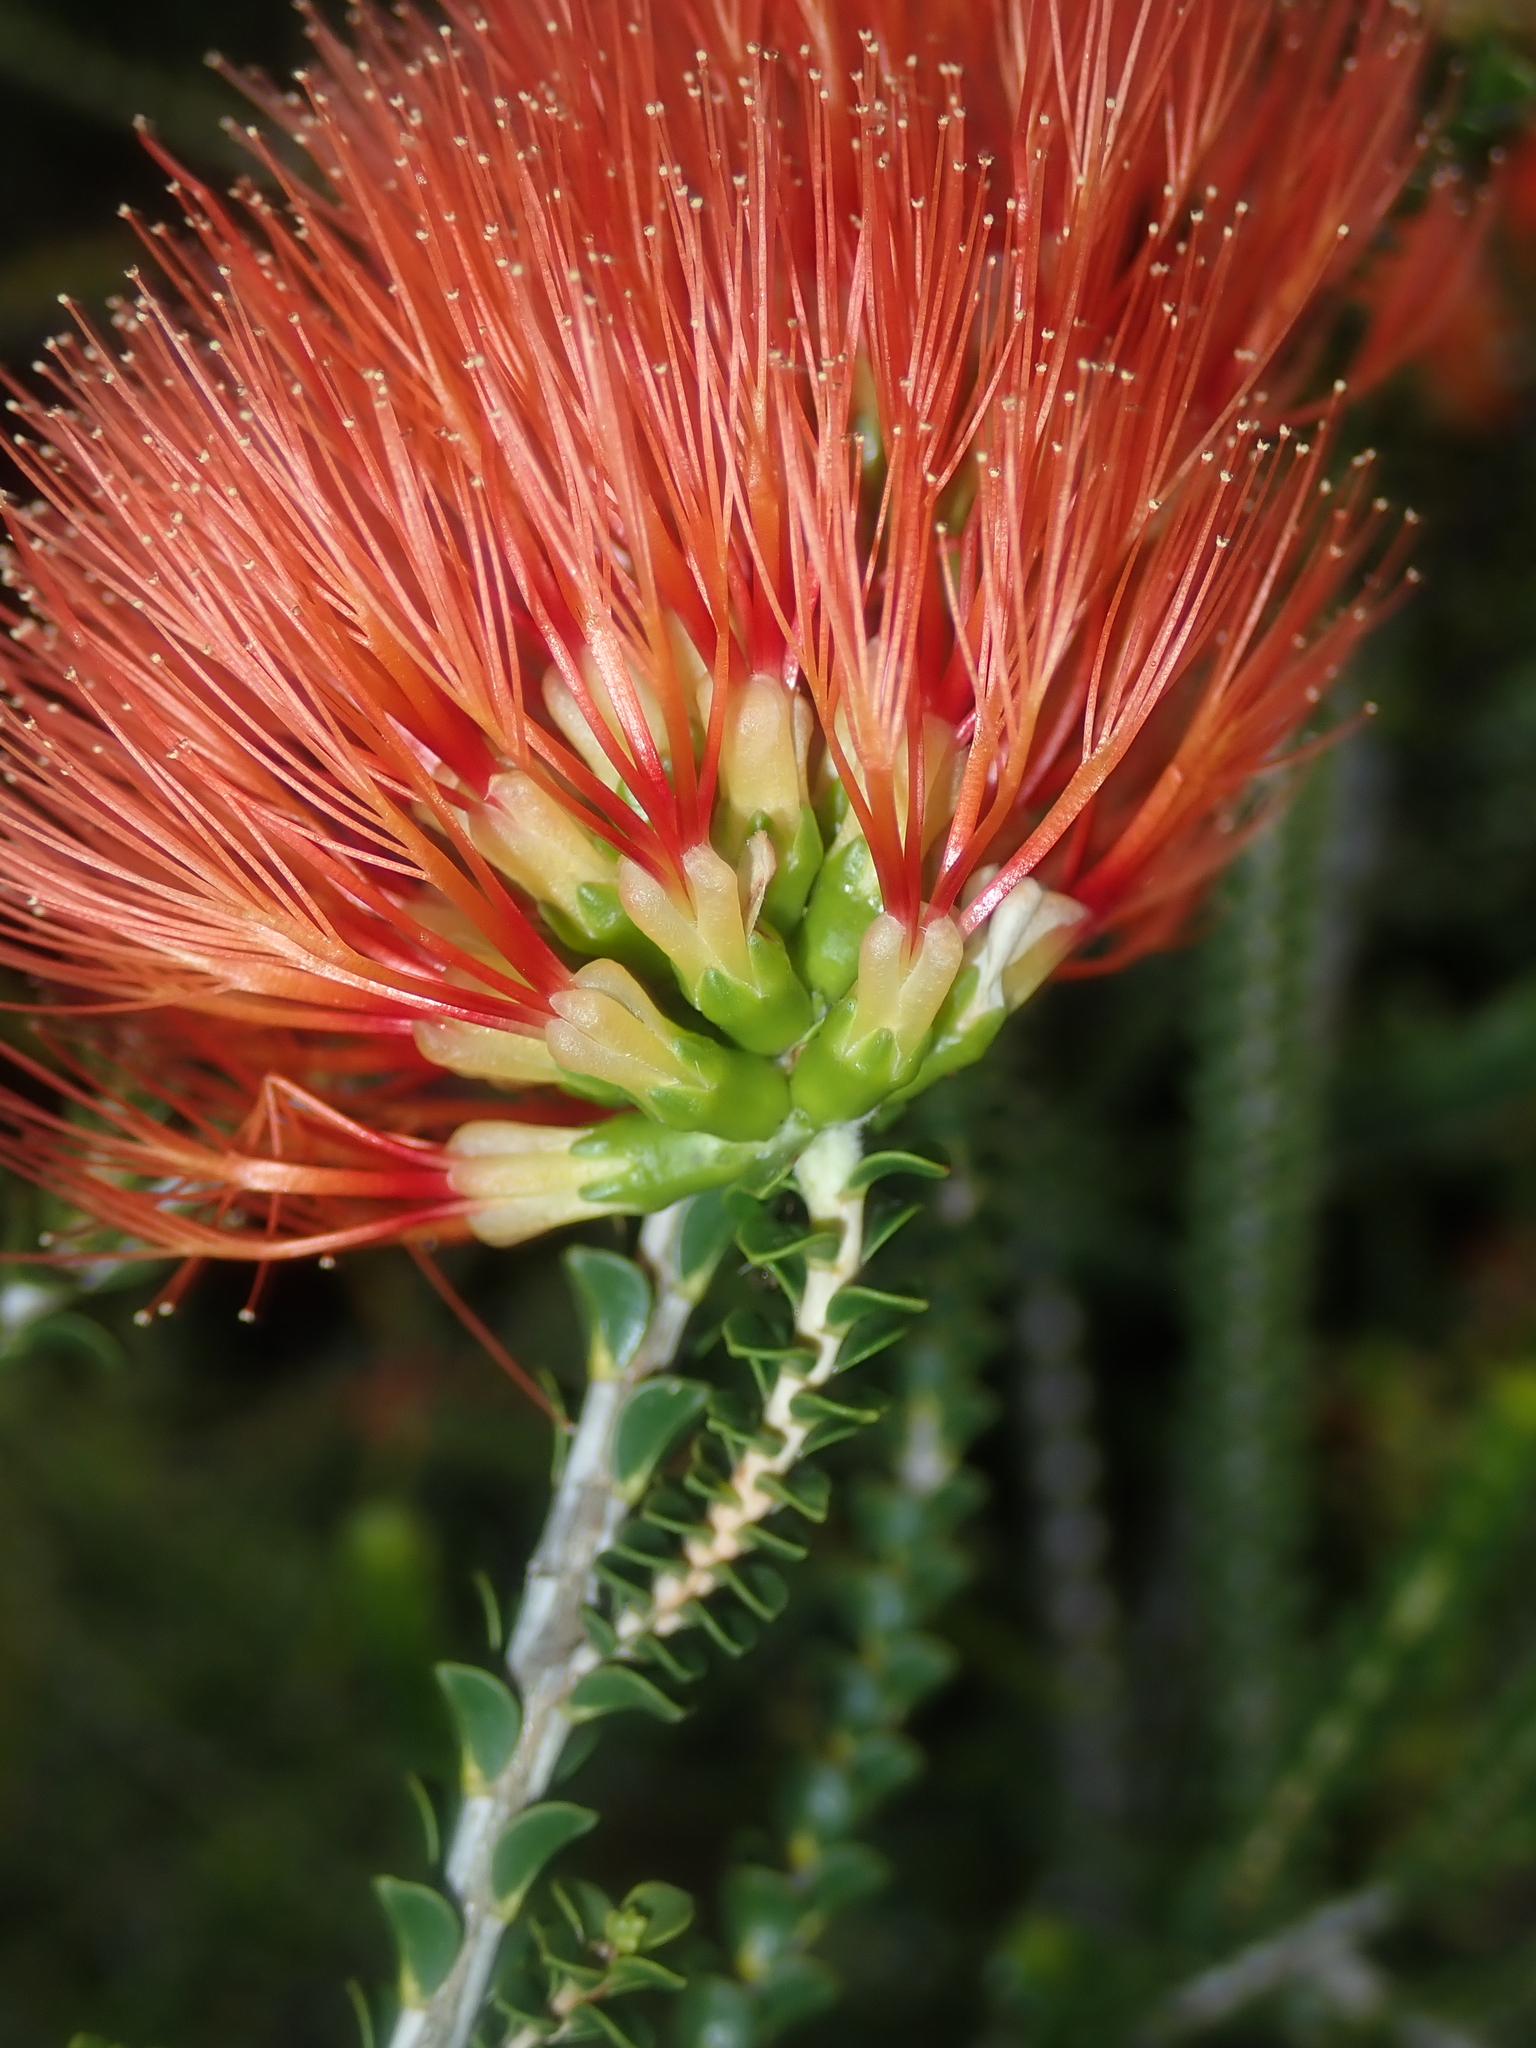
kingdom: Plantae
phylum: Tracheophyta
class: Magnoliopsida
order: Myrtales
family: Myrtaceae
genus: Melaleuca
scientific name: Melaleuca aestiva
